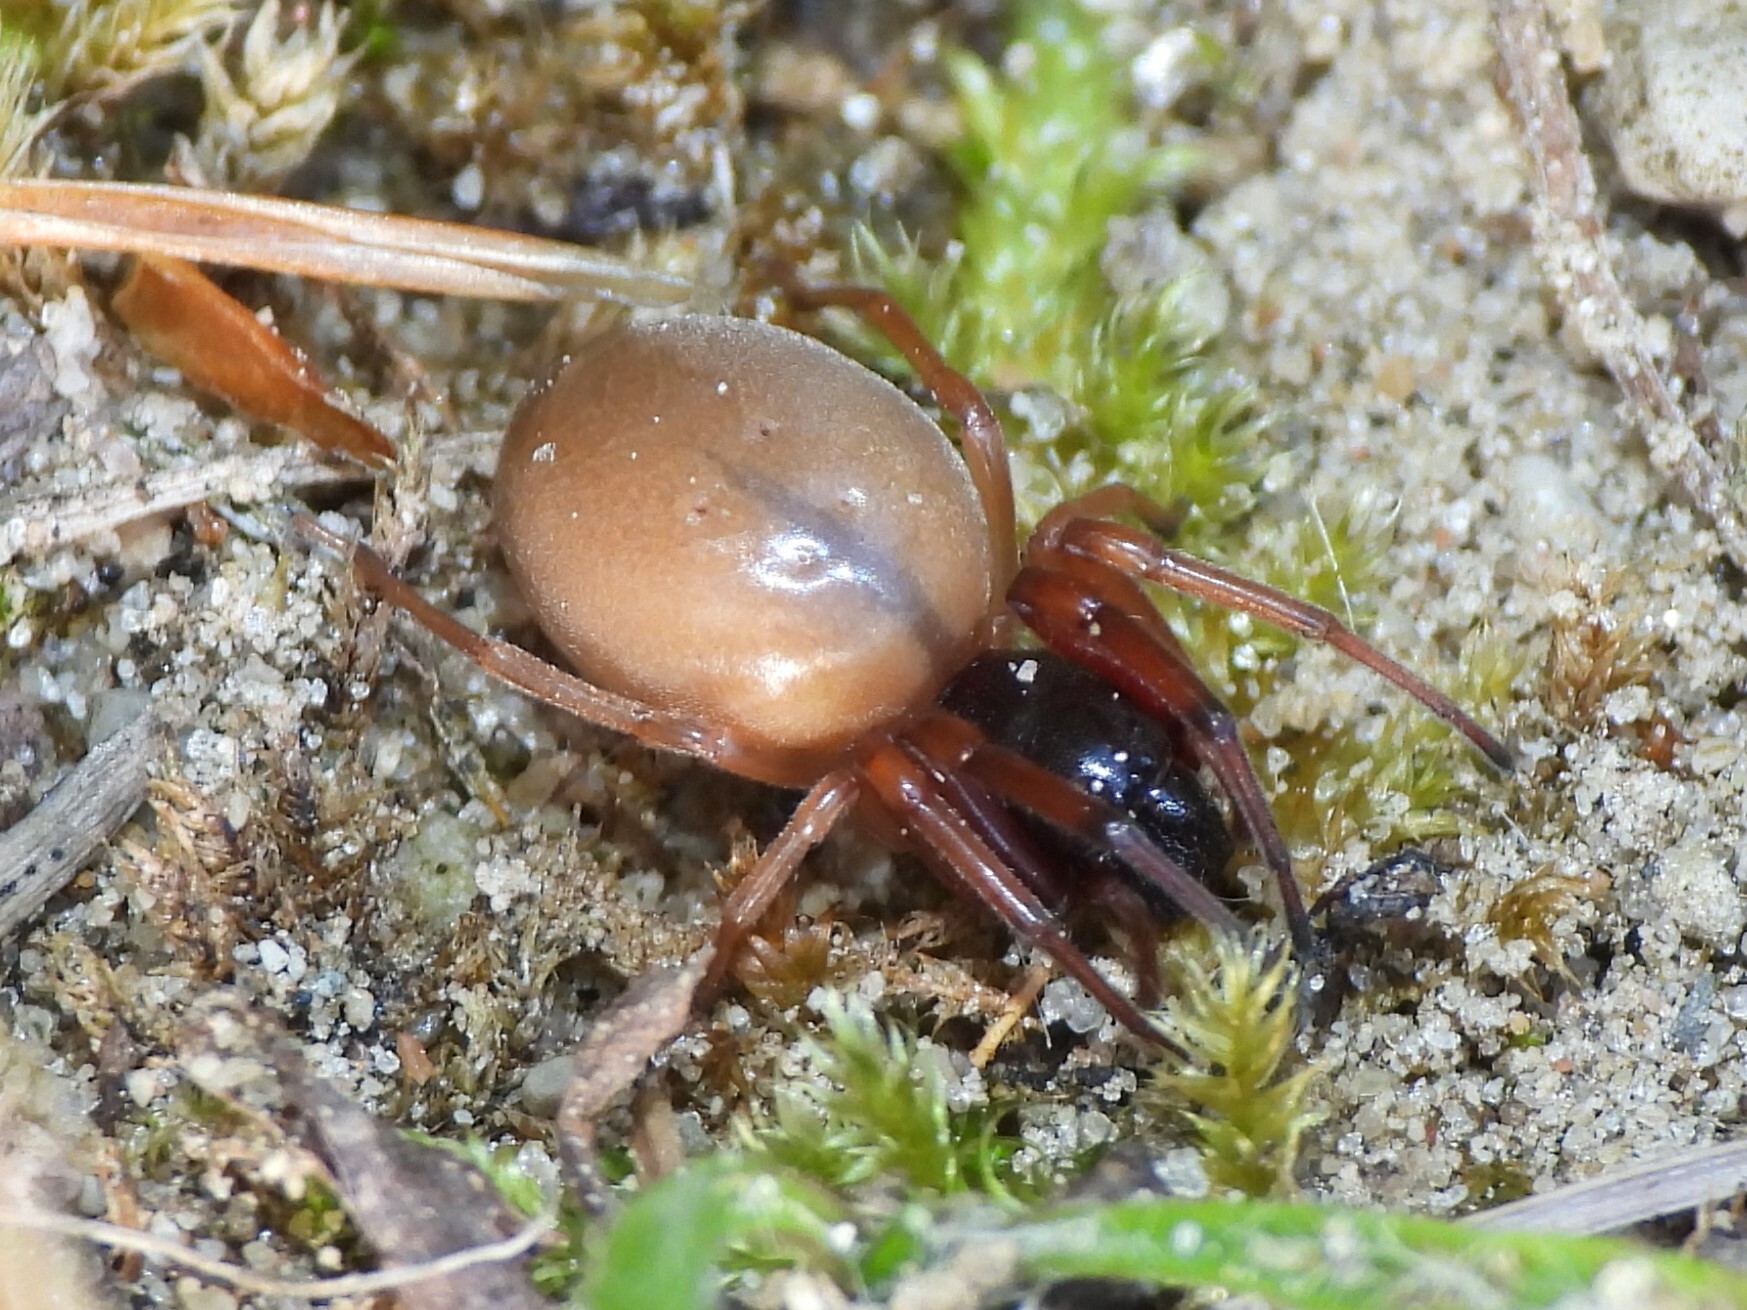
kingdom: Animalia
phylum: Arthropoda
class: Arachnida
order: Araneae
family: Trachelidae
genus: Trachelas
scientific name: Trachelas tranquillus
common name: Broad-faced sac spider
